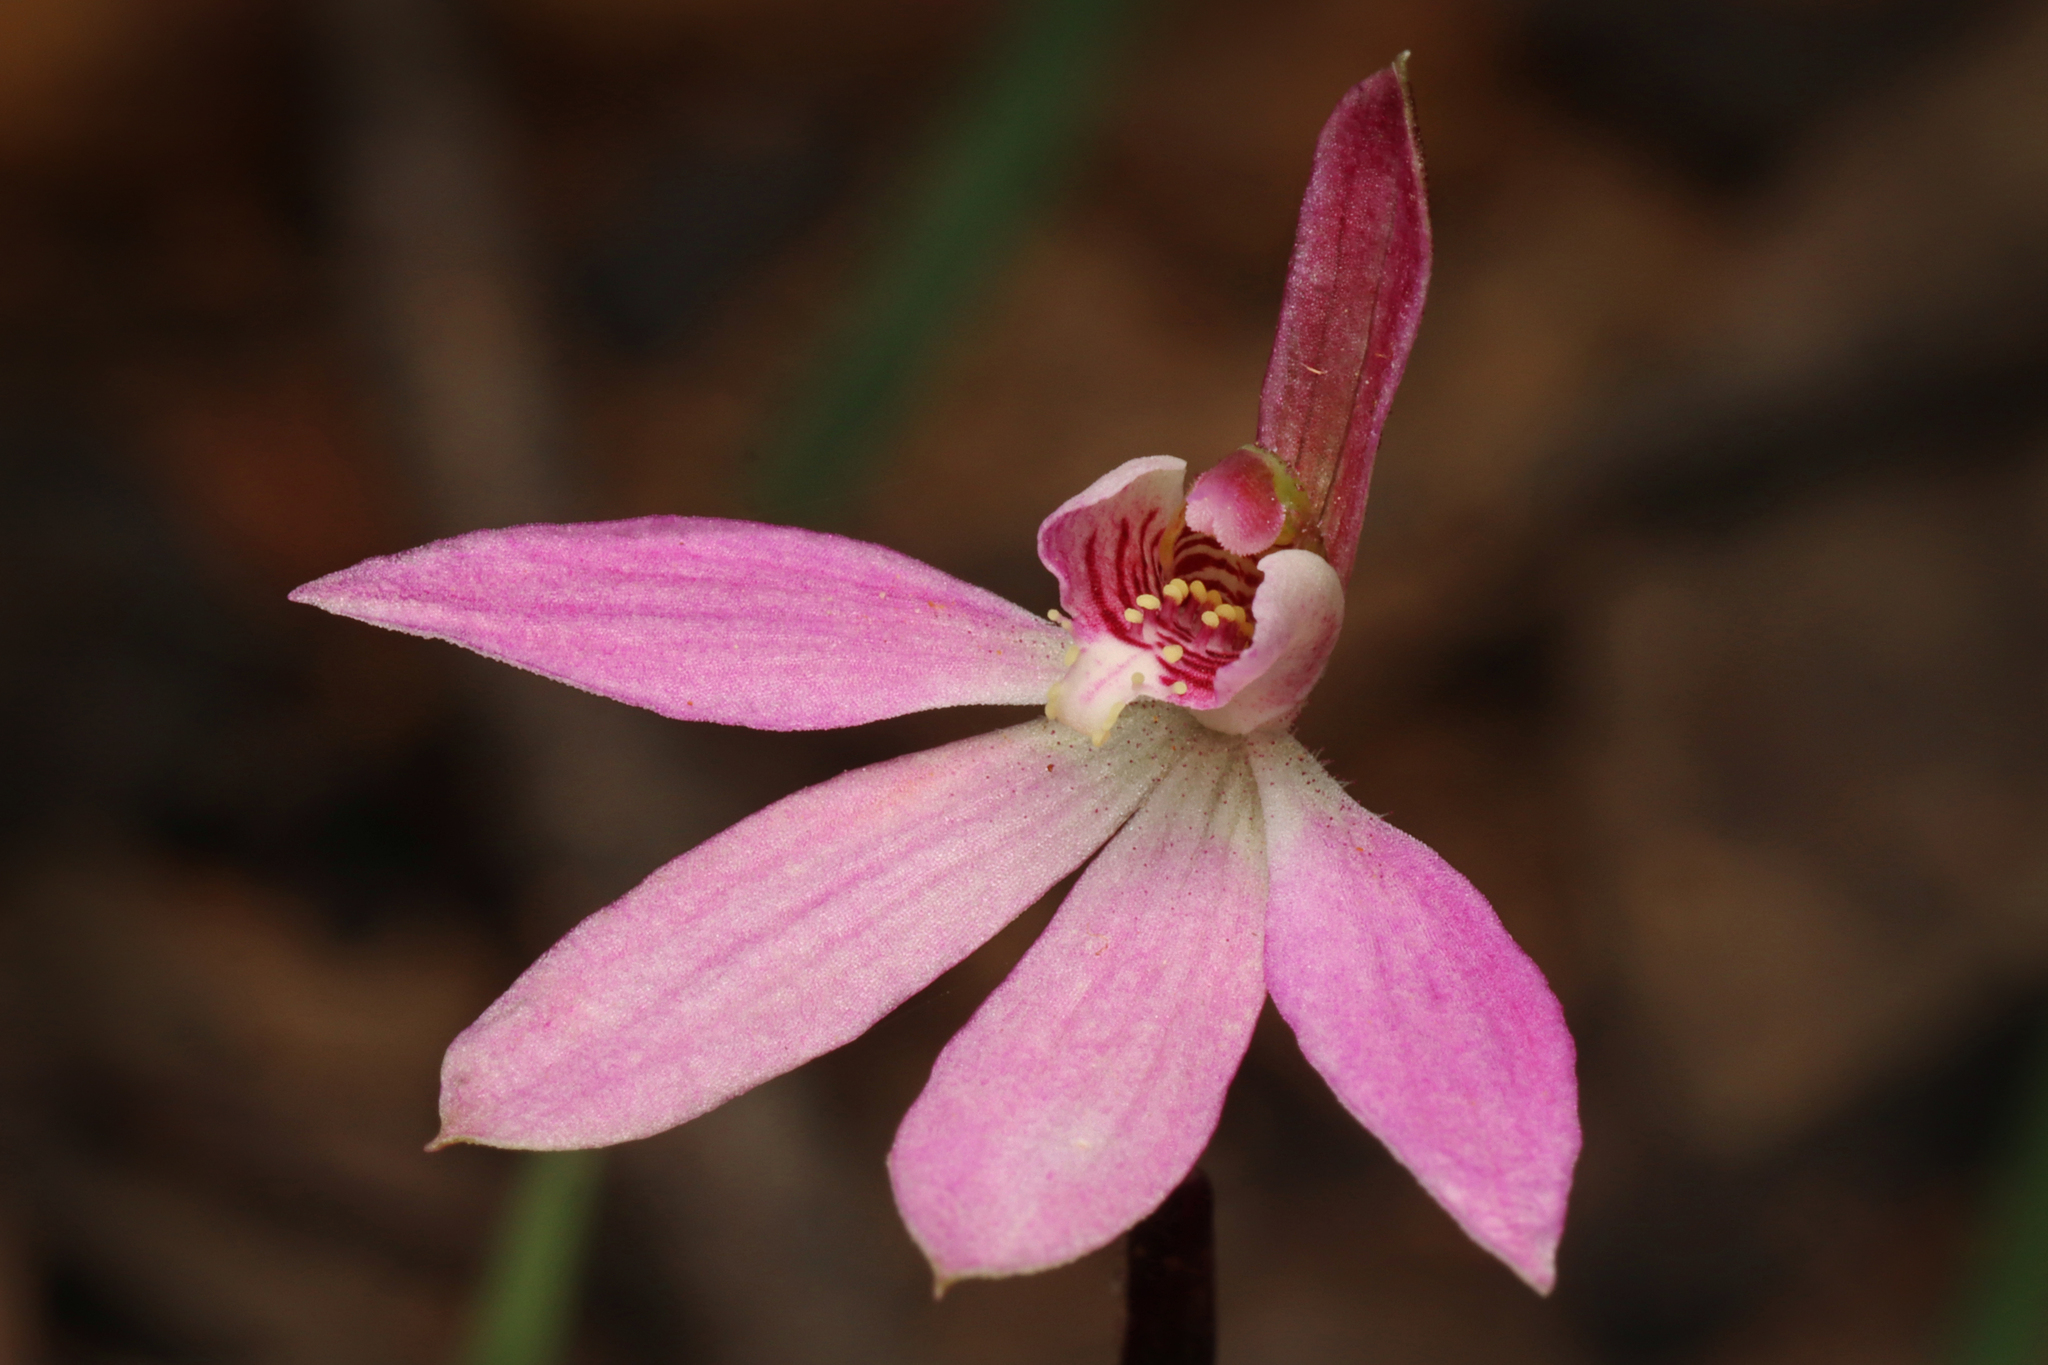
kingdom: Plantae
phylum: Tracheophyta
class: Liliopsida
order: Asparagales
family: Orchidaceae
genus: Caladenia
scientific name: Caladenia carnea
